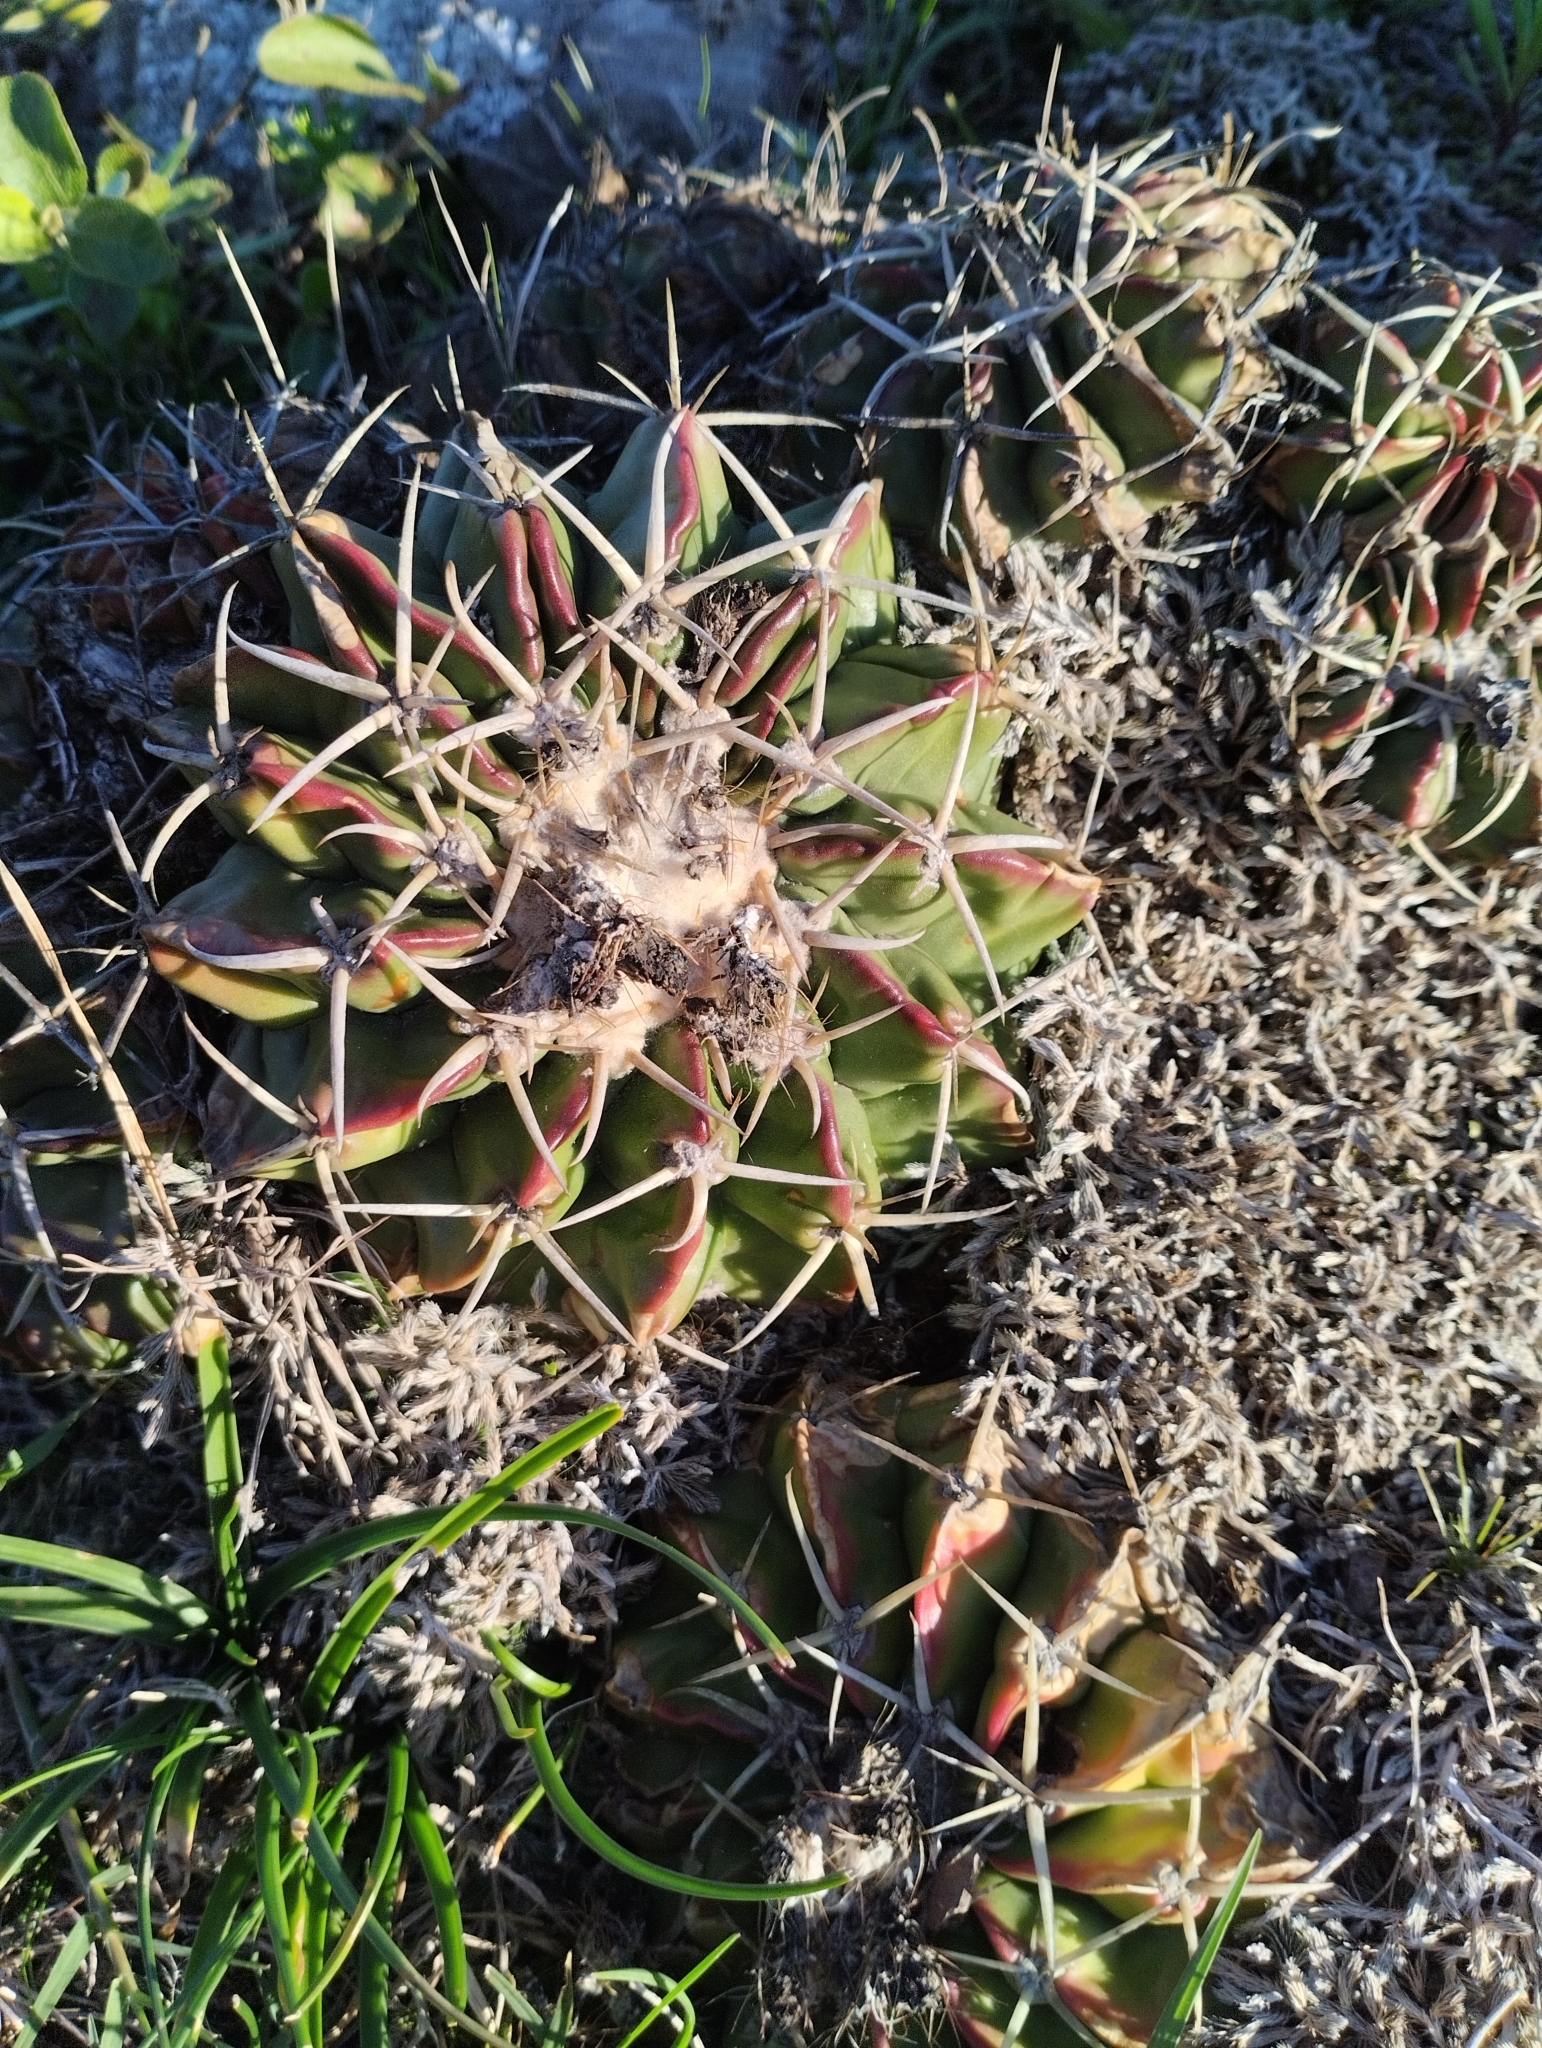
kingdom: Plantae
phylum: Tracheophyta
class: Magnoliopsida
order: Caryophyllales
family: Cactaceae
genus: Parodia
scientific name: Parodia erinacea
